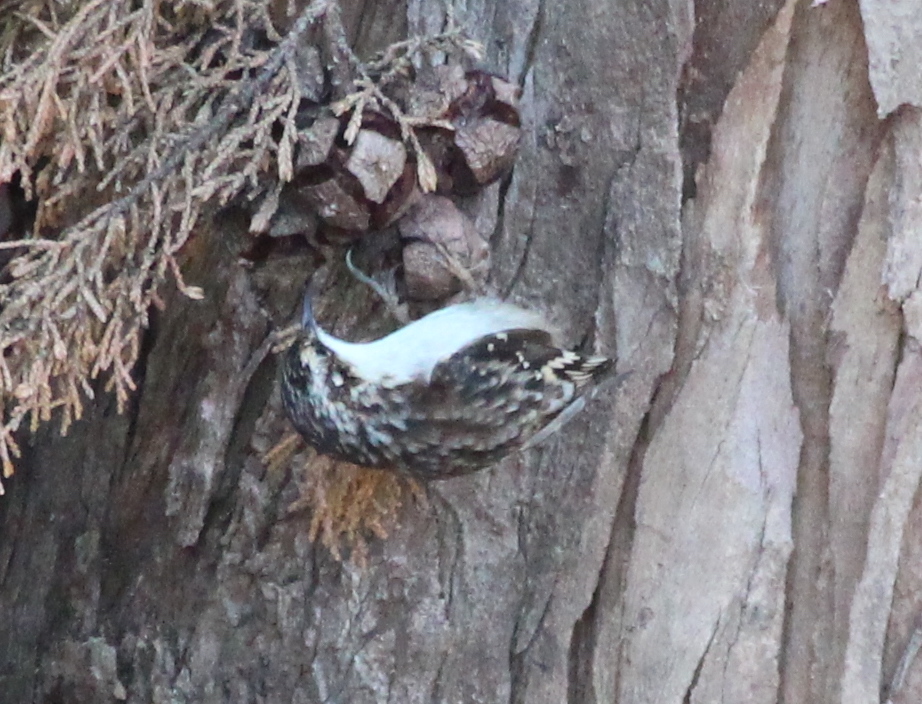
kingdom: Animalia
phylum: Chordata
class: Aves
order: Passeriformes
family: Certhiidae
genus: Certhia
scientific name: Certhia americana
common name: Brown creeper
